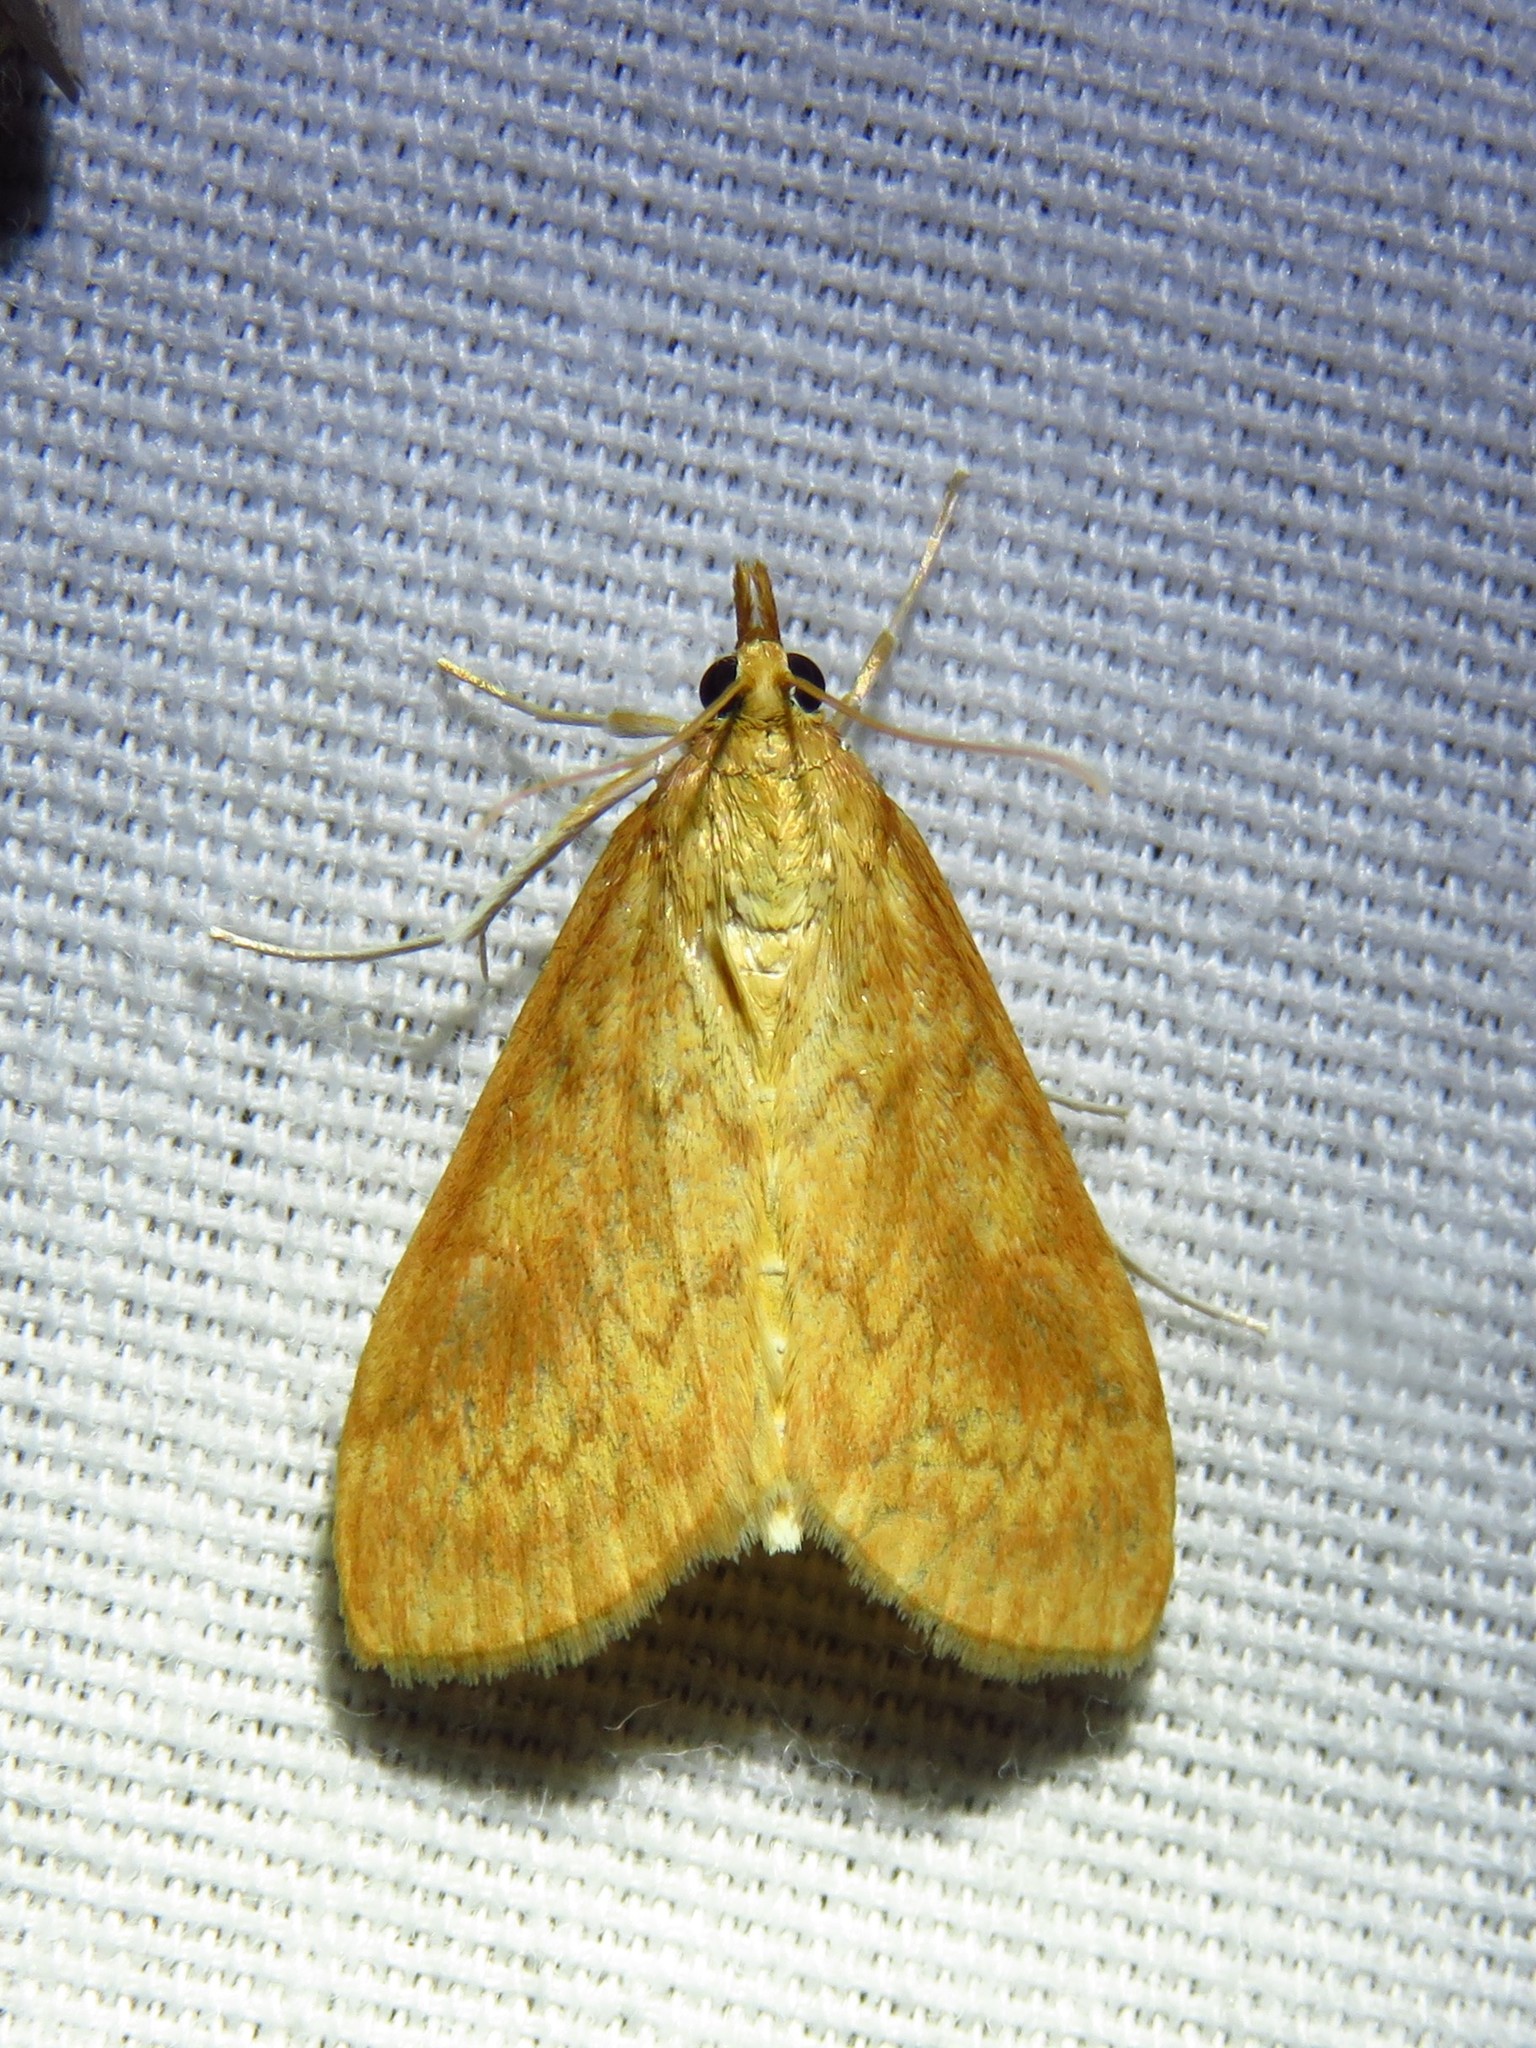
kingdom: Animalia
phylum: Arthropoda
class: Insecta
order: Lepidoptera
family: Crambidae
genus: Ostrinia
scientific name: Ostrinia penitalis
